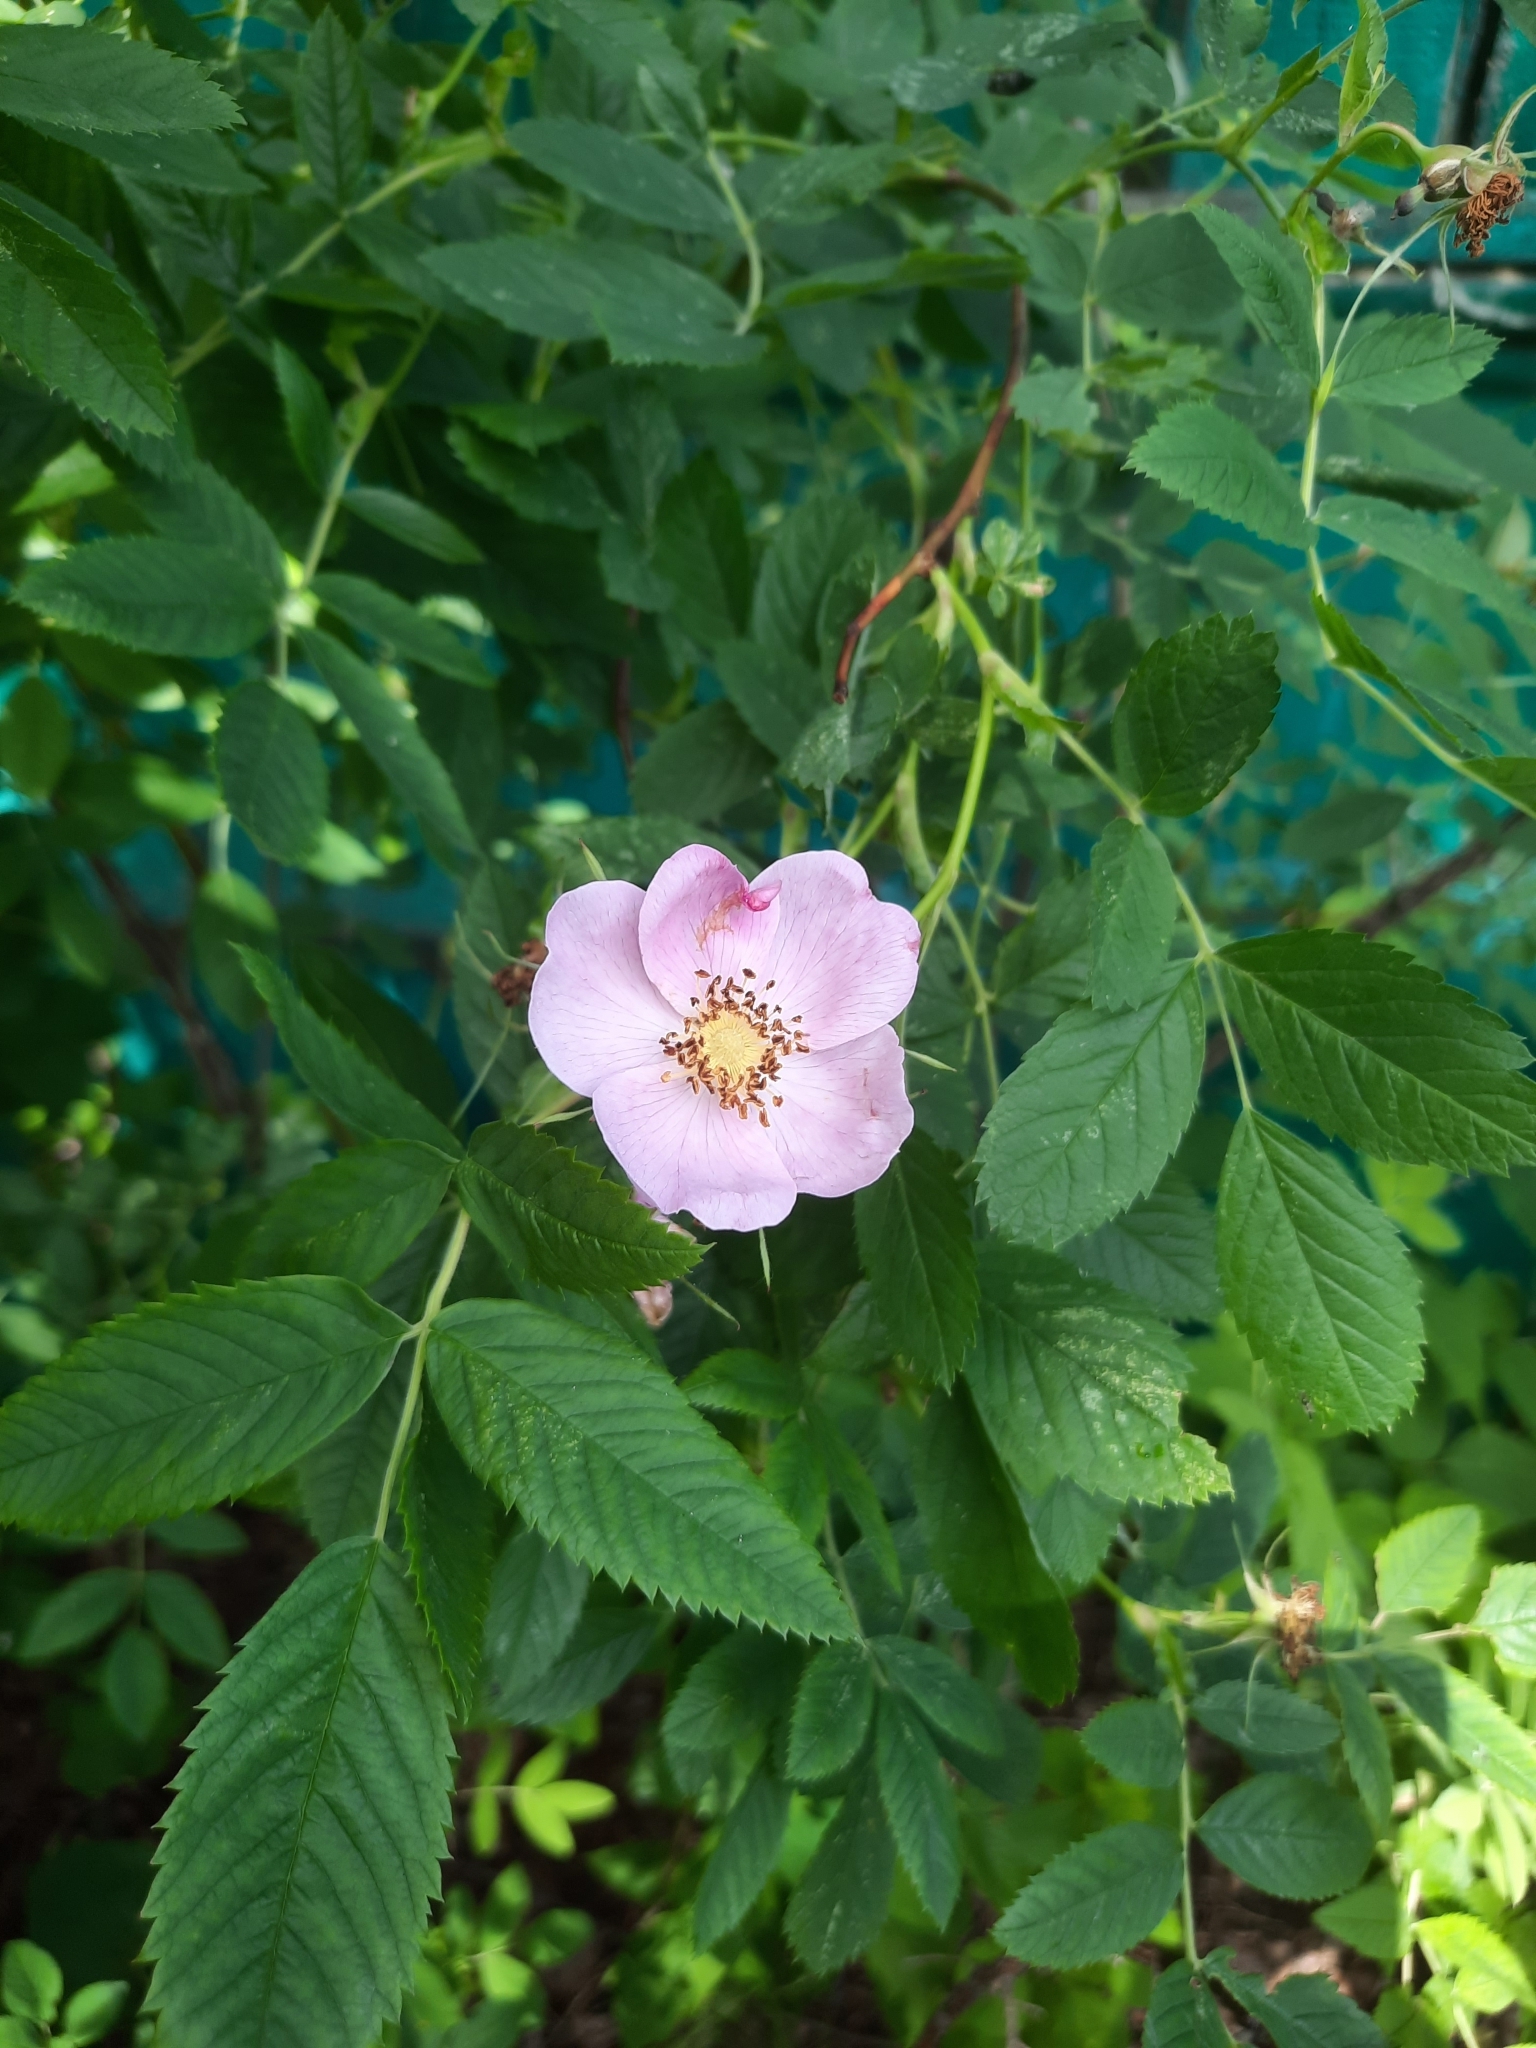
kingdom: Plantae
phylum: Tracheophyta
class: Magnoliopsida
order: Rosales
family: Rosaceae
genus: Rosa
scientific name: Rosa majalis
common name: Cinnamon rose
